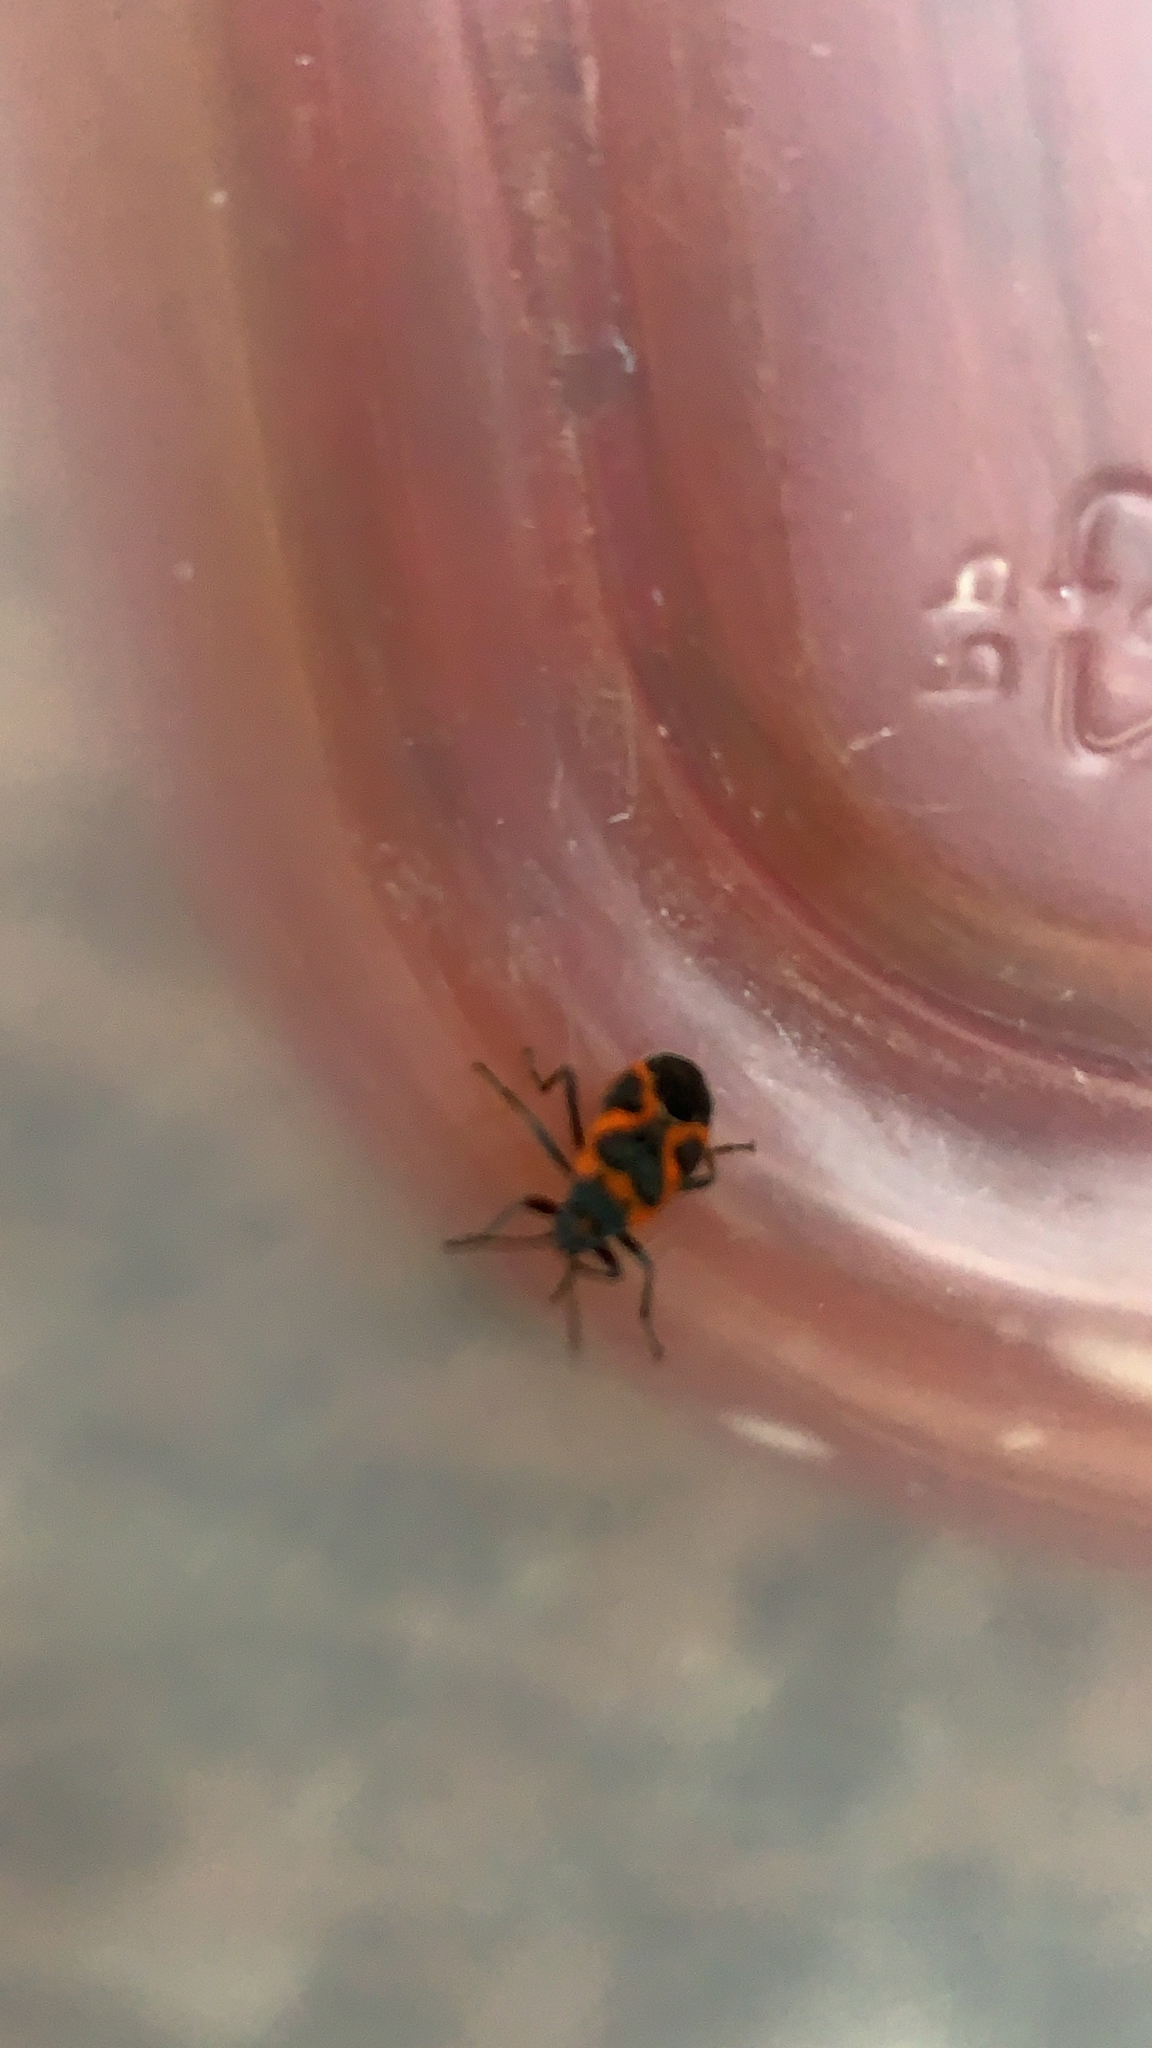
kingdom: Animalia
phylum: Arthropoda
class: Insecta
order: Hemiptera
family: Lygaeidae
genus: Lygaeus
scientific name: Lygaeus kalmii
